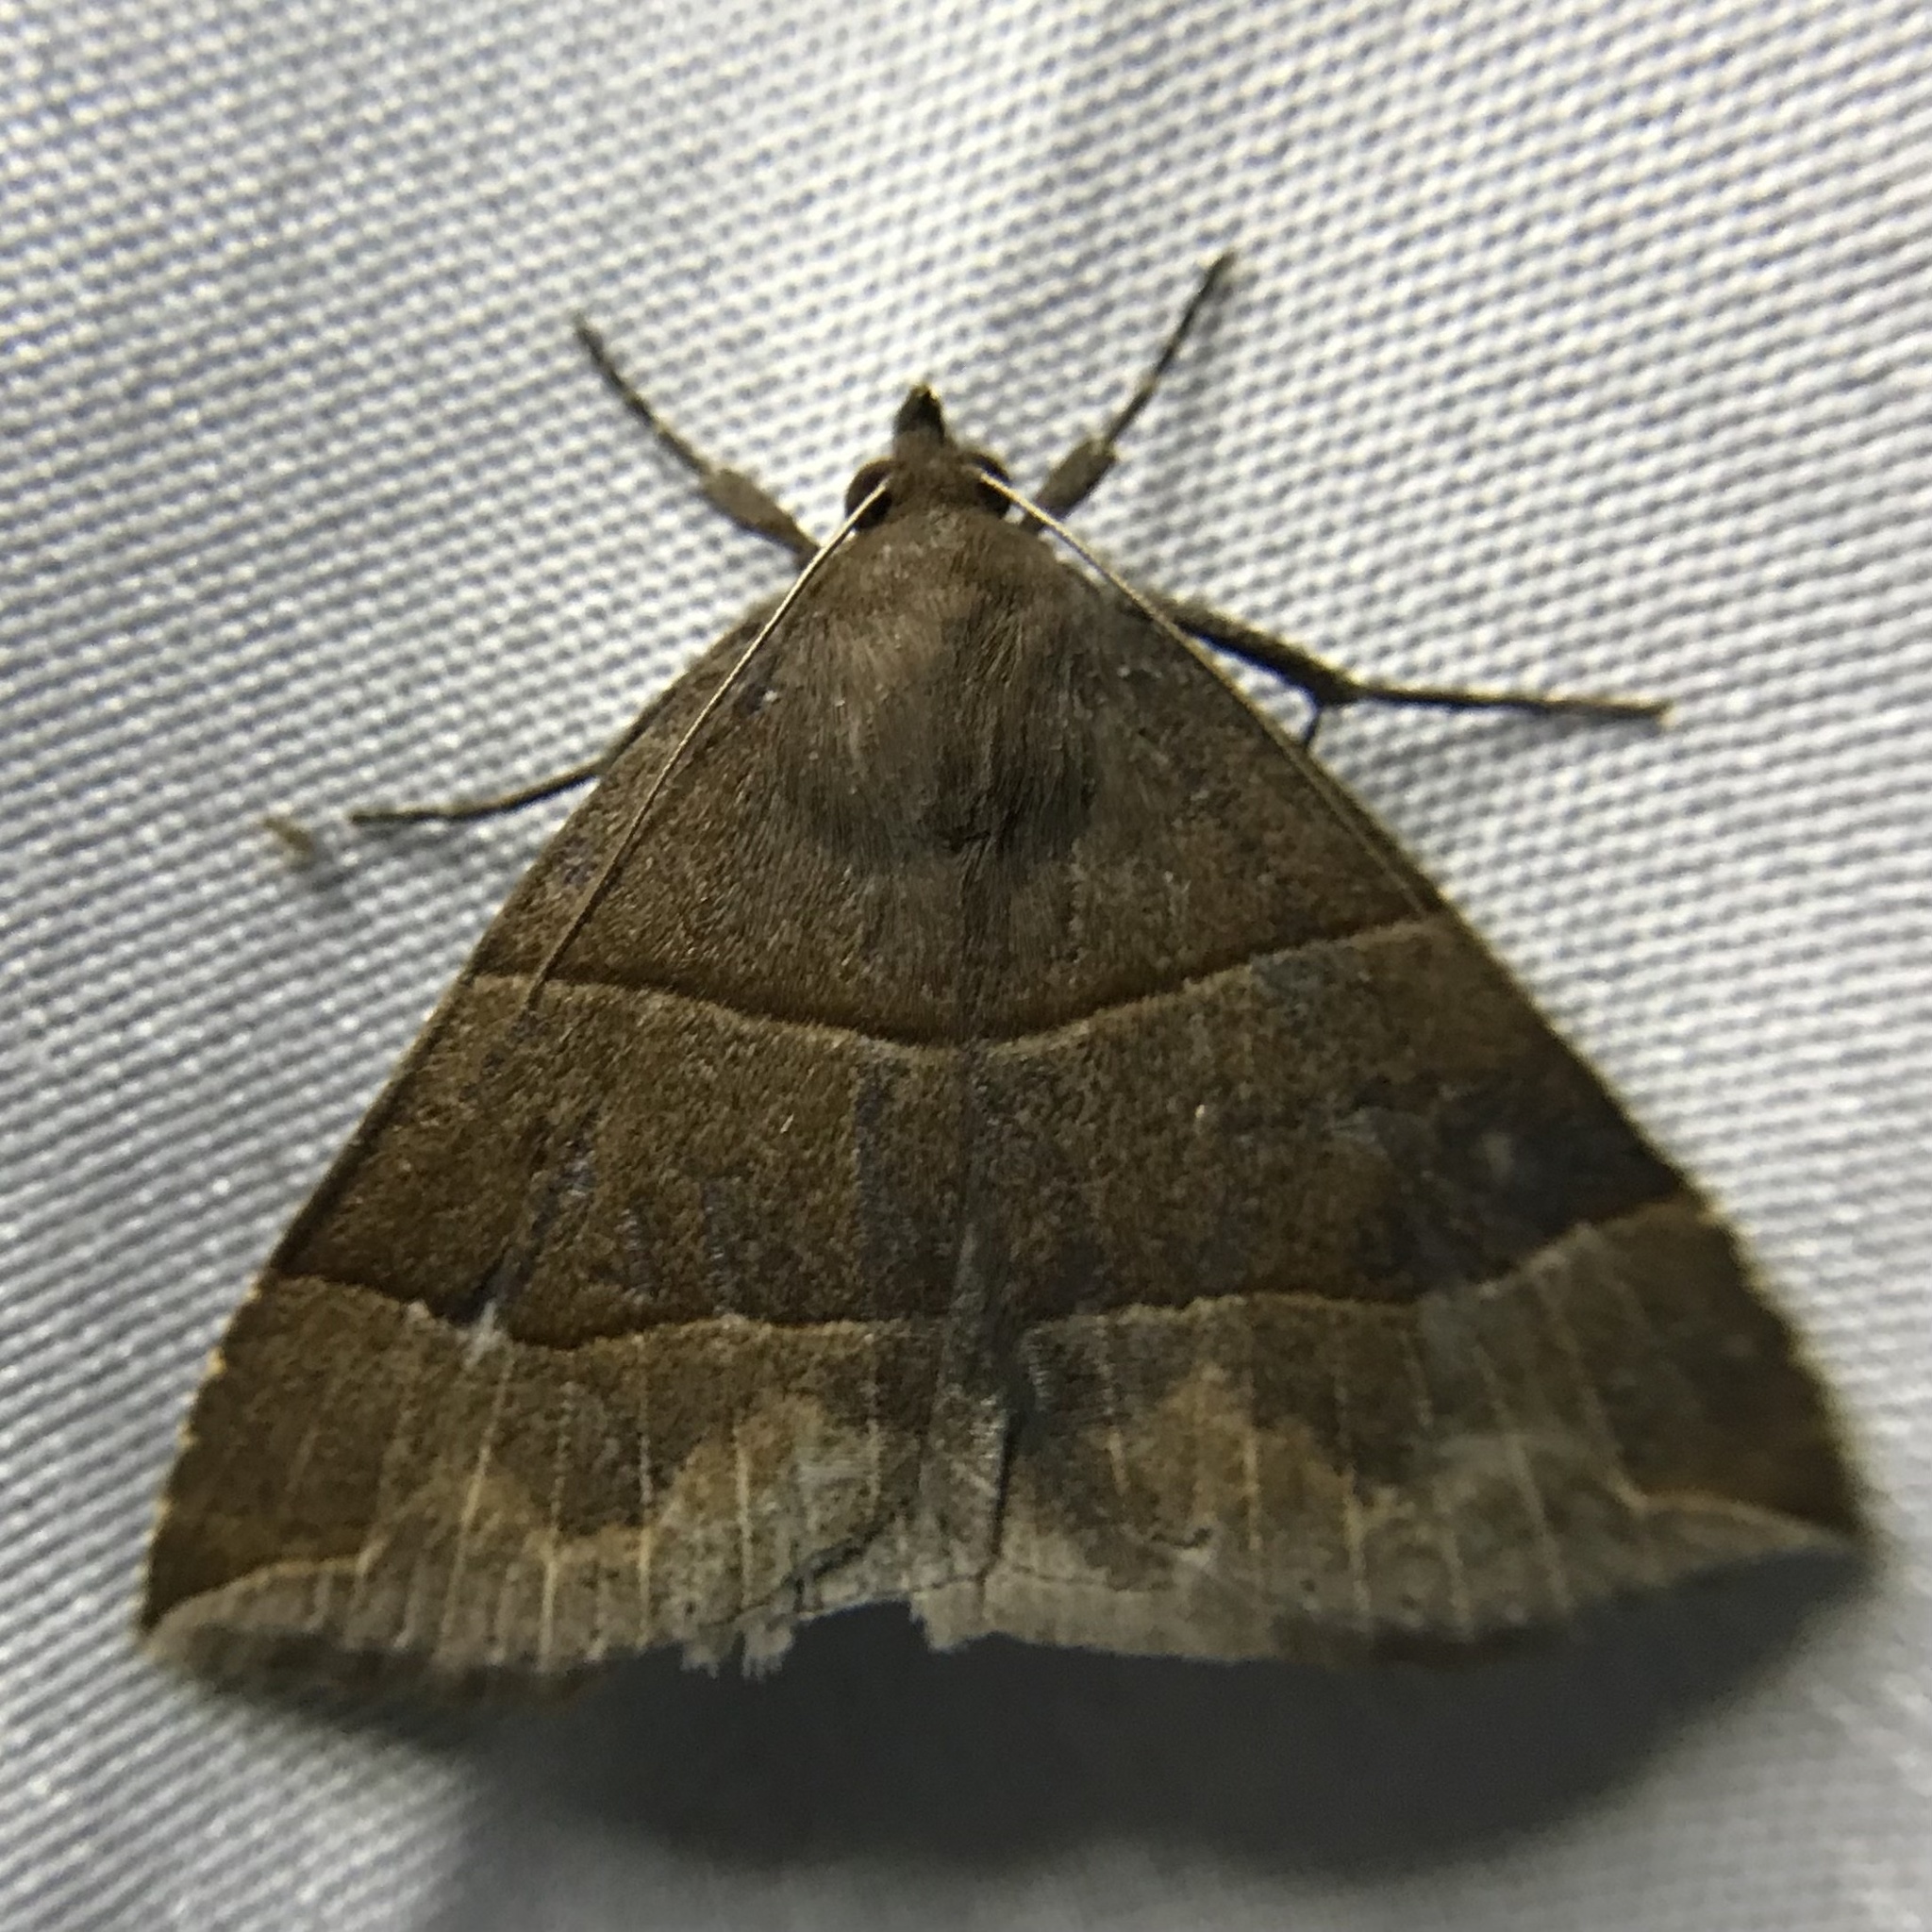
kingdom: Animalia
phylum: Arthropoda
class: Insecta
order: Lepidoptera
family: Erebidae
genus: Parallelia
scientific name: Parallelia bistriaris
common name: Maple looper moth
